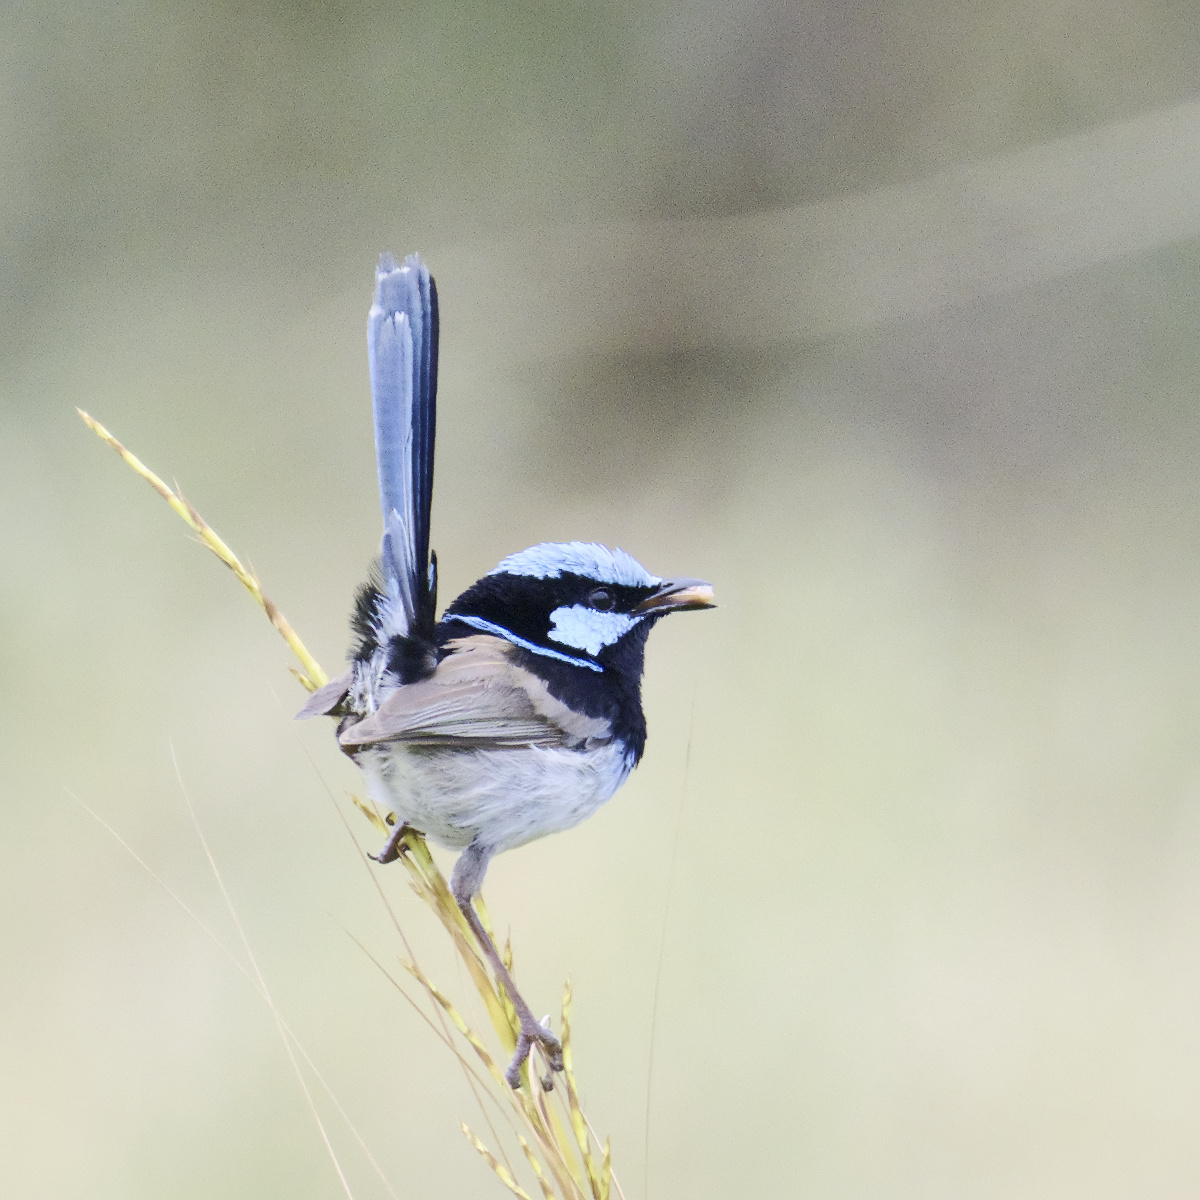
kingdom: Animalia
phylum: Chordata
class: Aves
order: Passeriformes
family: Maluridae
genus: Malurus
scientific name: Malurus cyaneus
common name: Superb fairywren
